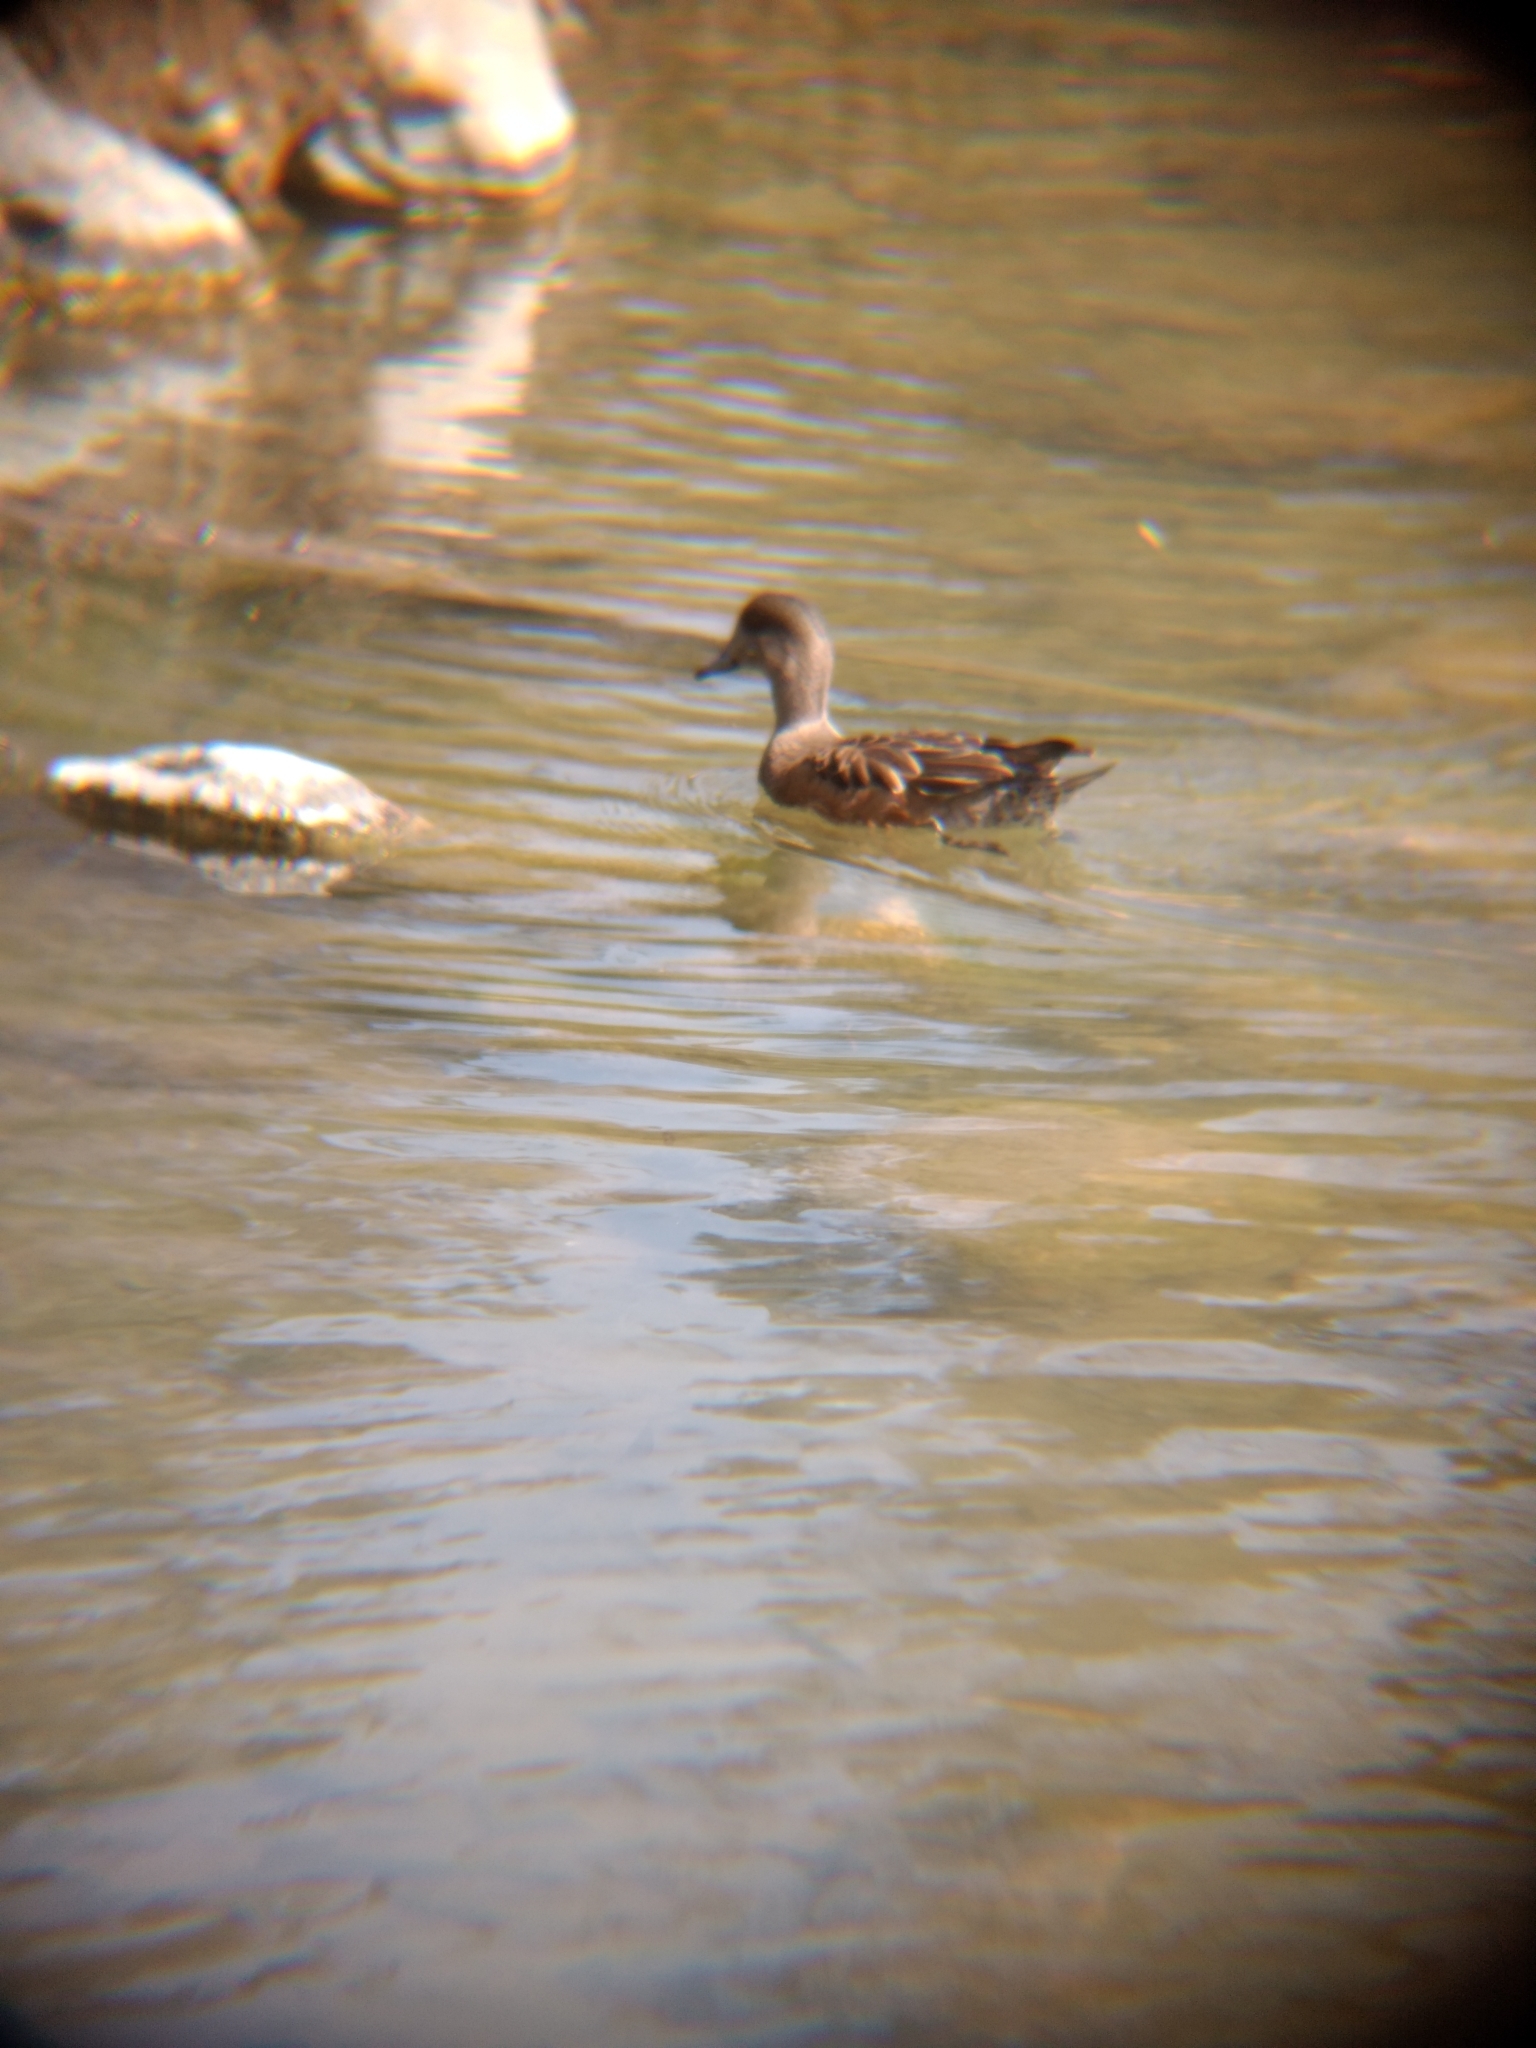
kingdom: Animalia
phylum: Chordata
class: Aves
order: Anseriformes
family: Anatidae
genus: Mareca
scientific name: Mareca americana
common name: American wigeon
